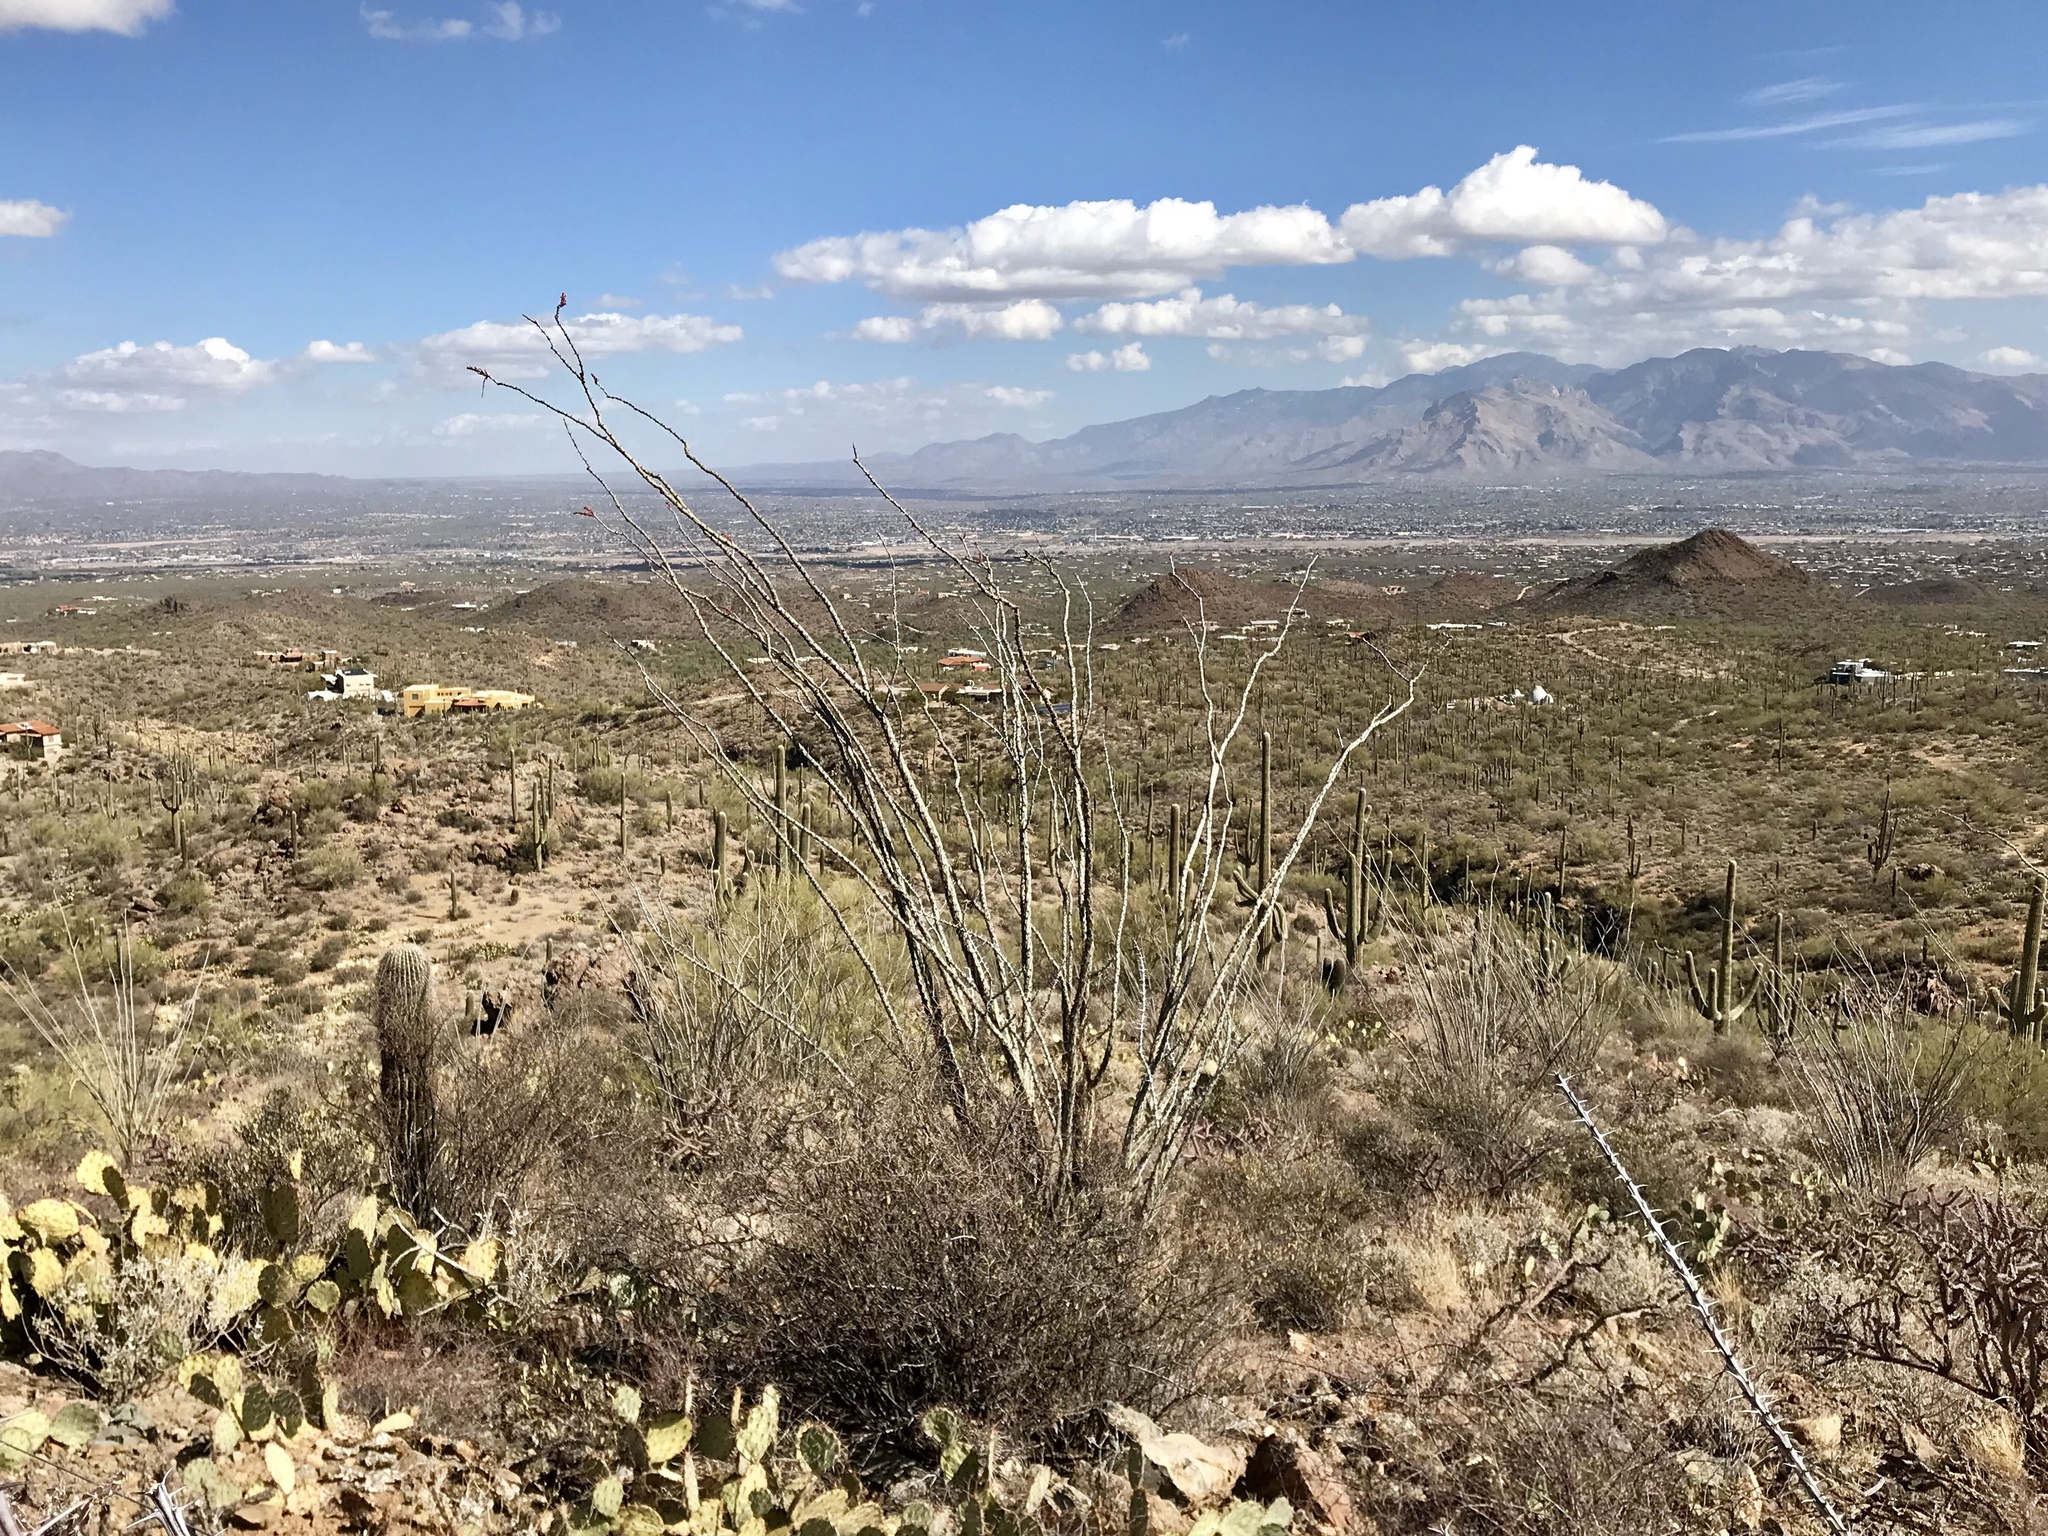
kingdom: Plantae
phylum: Tracheophyta
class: Magnoliopsida
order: Ericales
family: Fouquieriaceae
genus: Fouquieria
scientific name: Fouquieria splendens
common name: Vine-cactus
